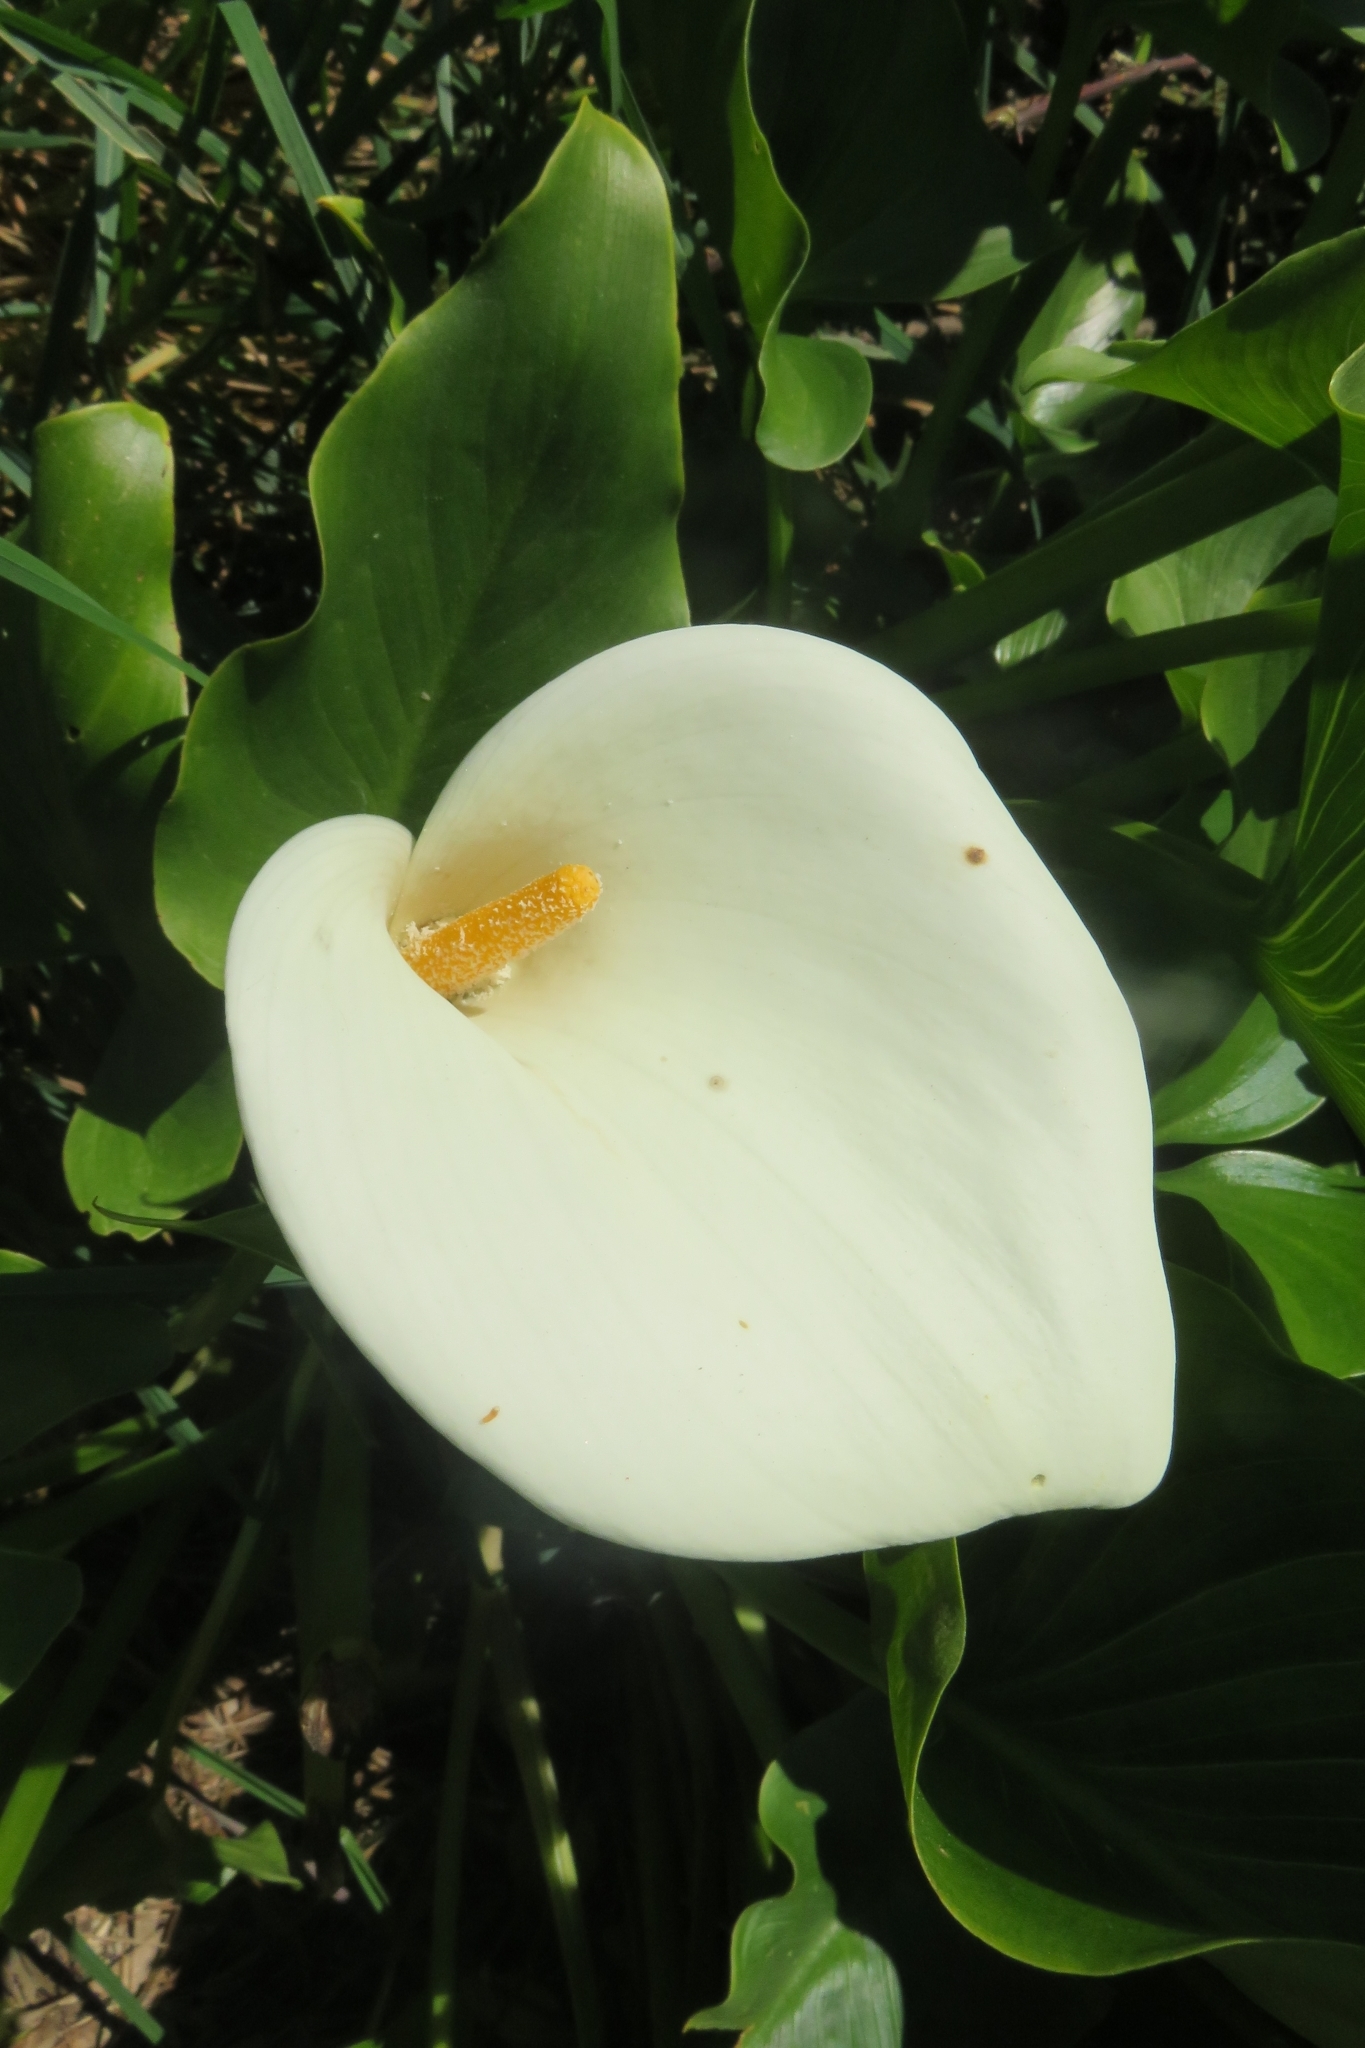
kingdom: Plantae
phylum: Tracheophyta
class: Liliopsida
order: Alismatales
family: Araceae
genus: Zantedeschia
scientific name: Zantedeschia aethiopica
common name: Altar-lily
